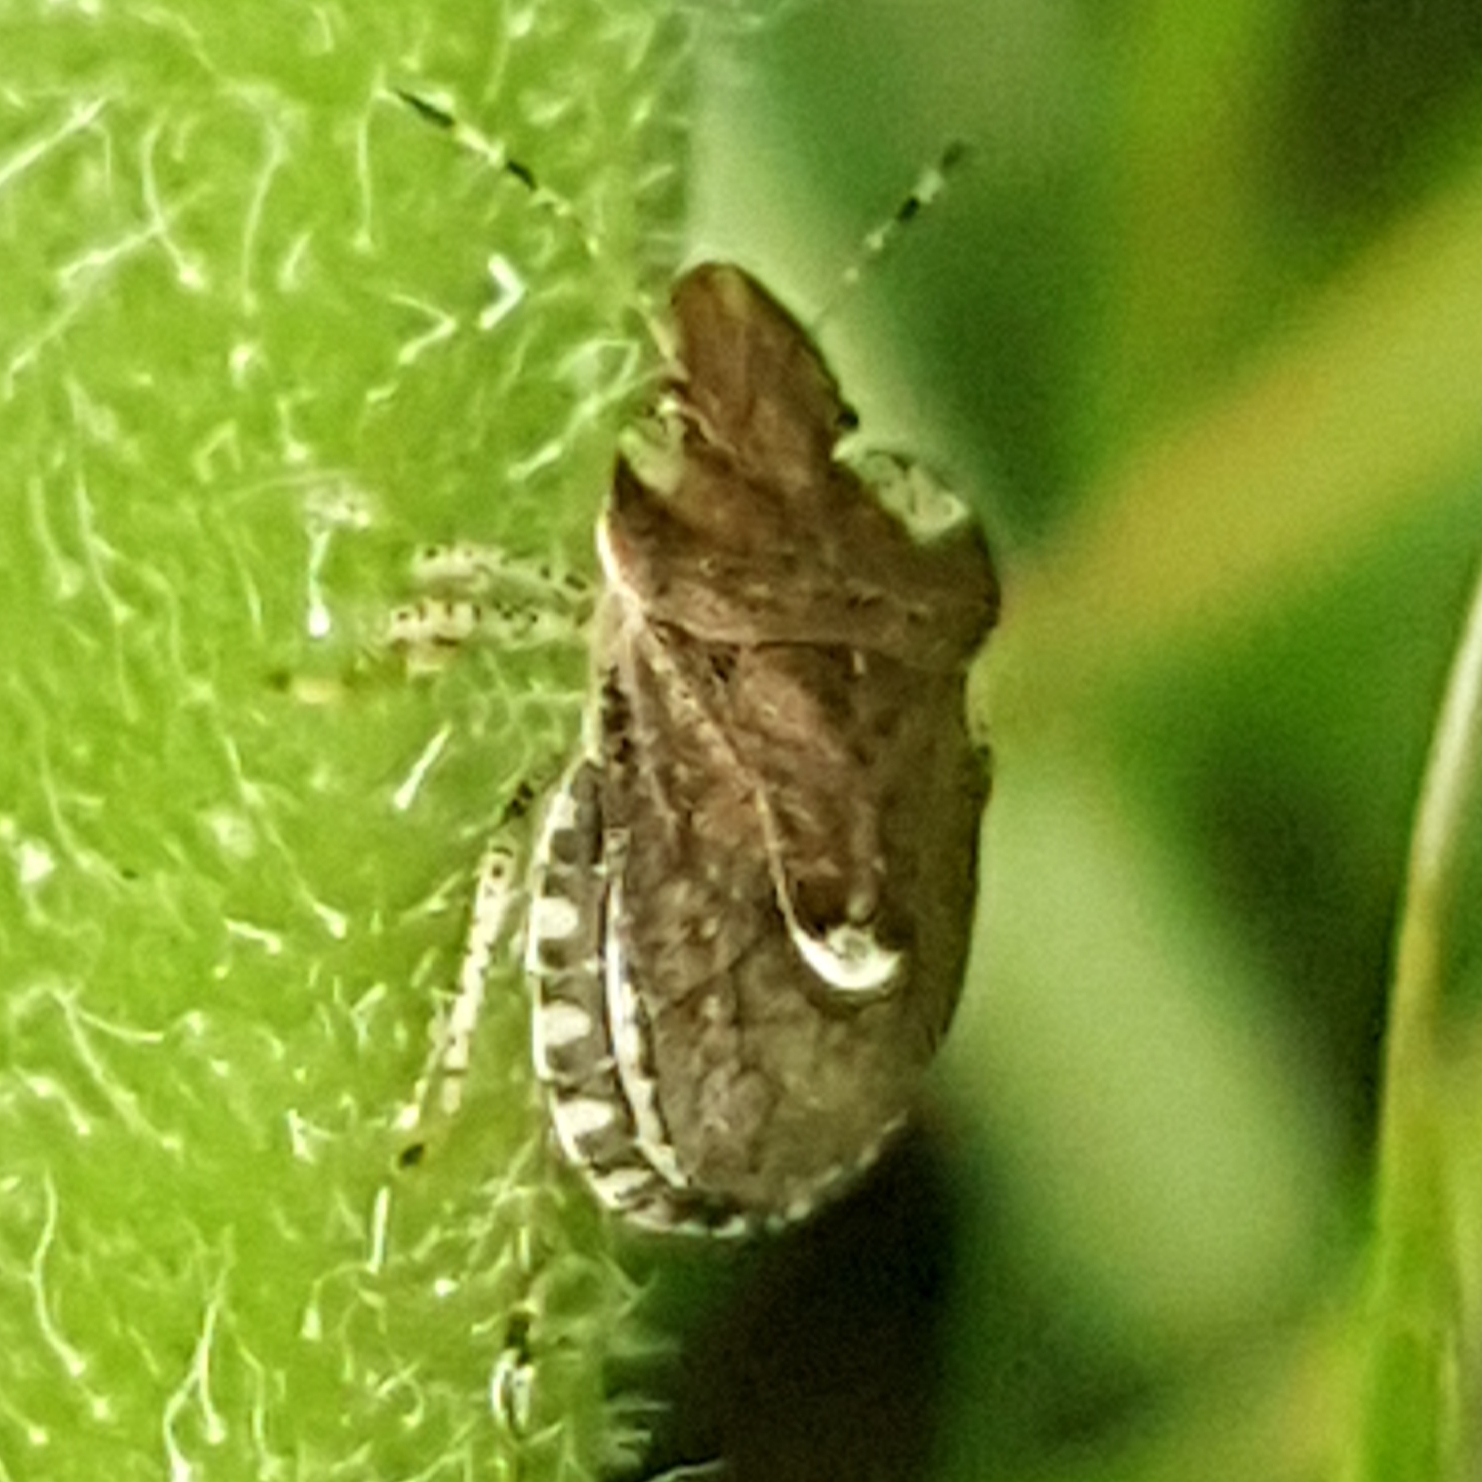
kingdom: Animalia
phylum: Arthropoda
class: Insecta
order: Hemiptera
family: Pentatomidae
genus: Dyroderes
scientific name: Dyroderes umbraculatus
